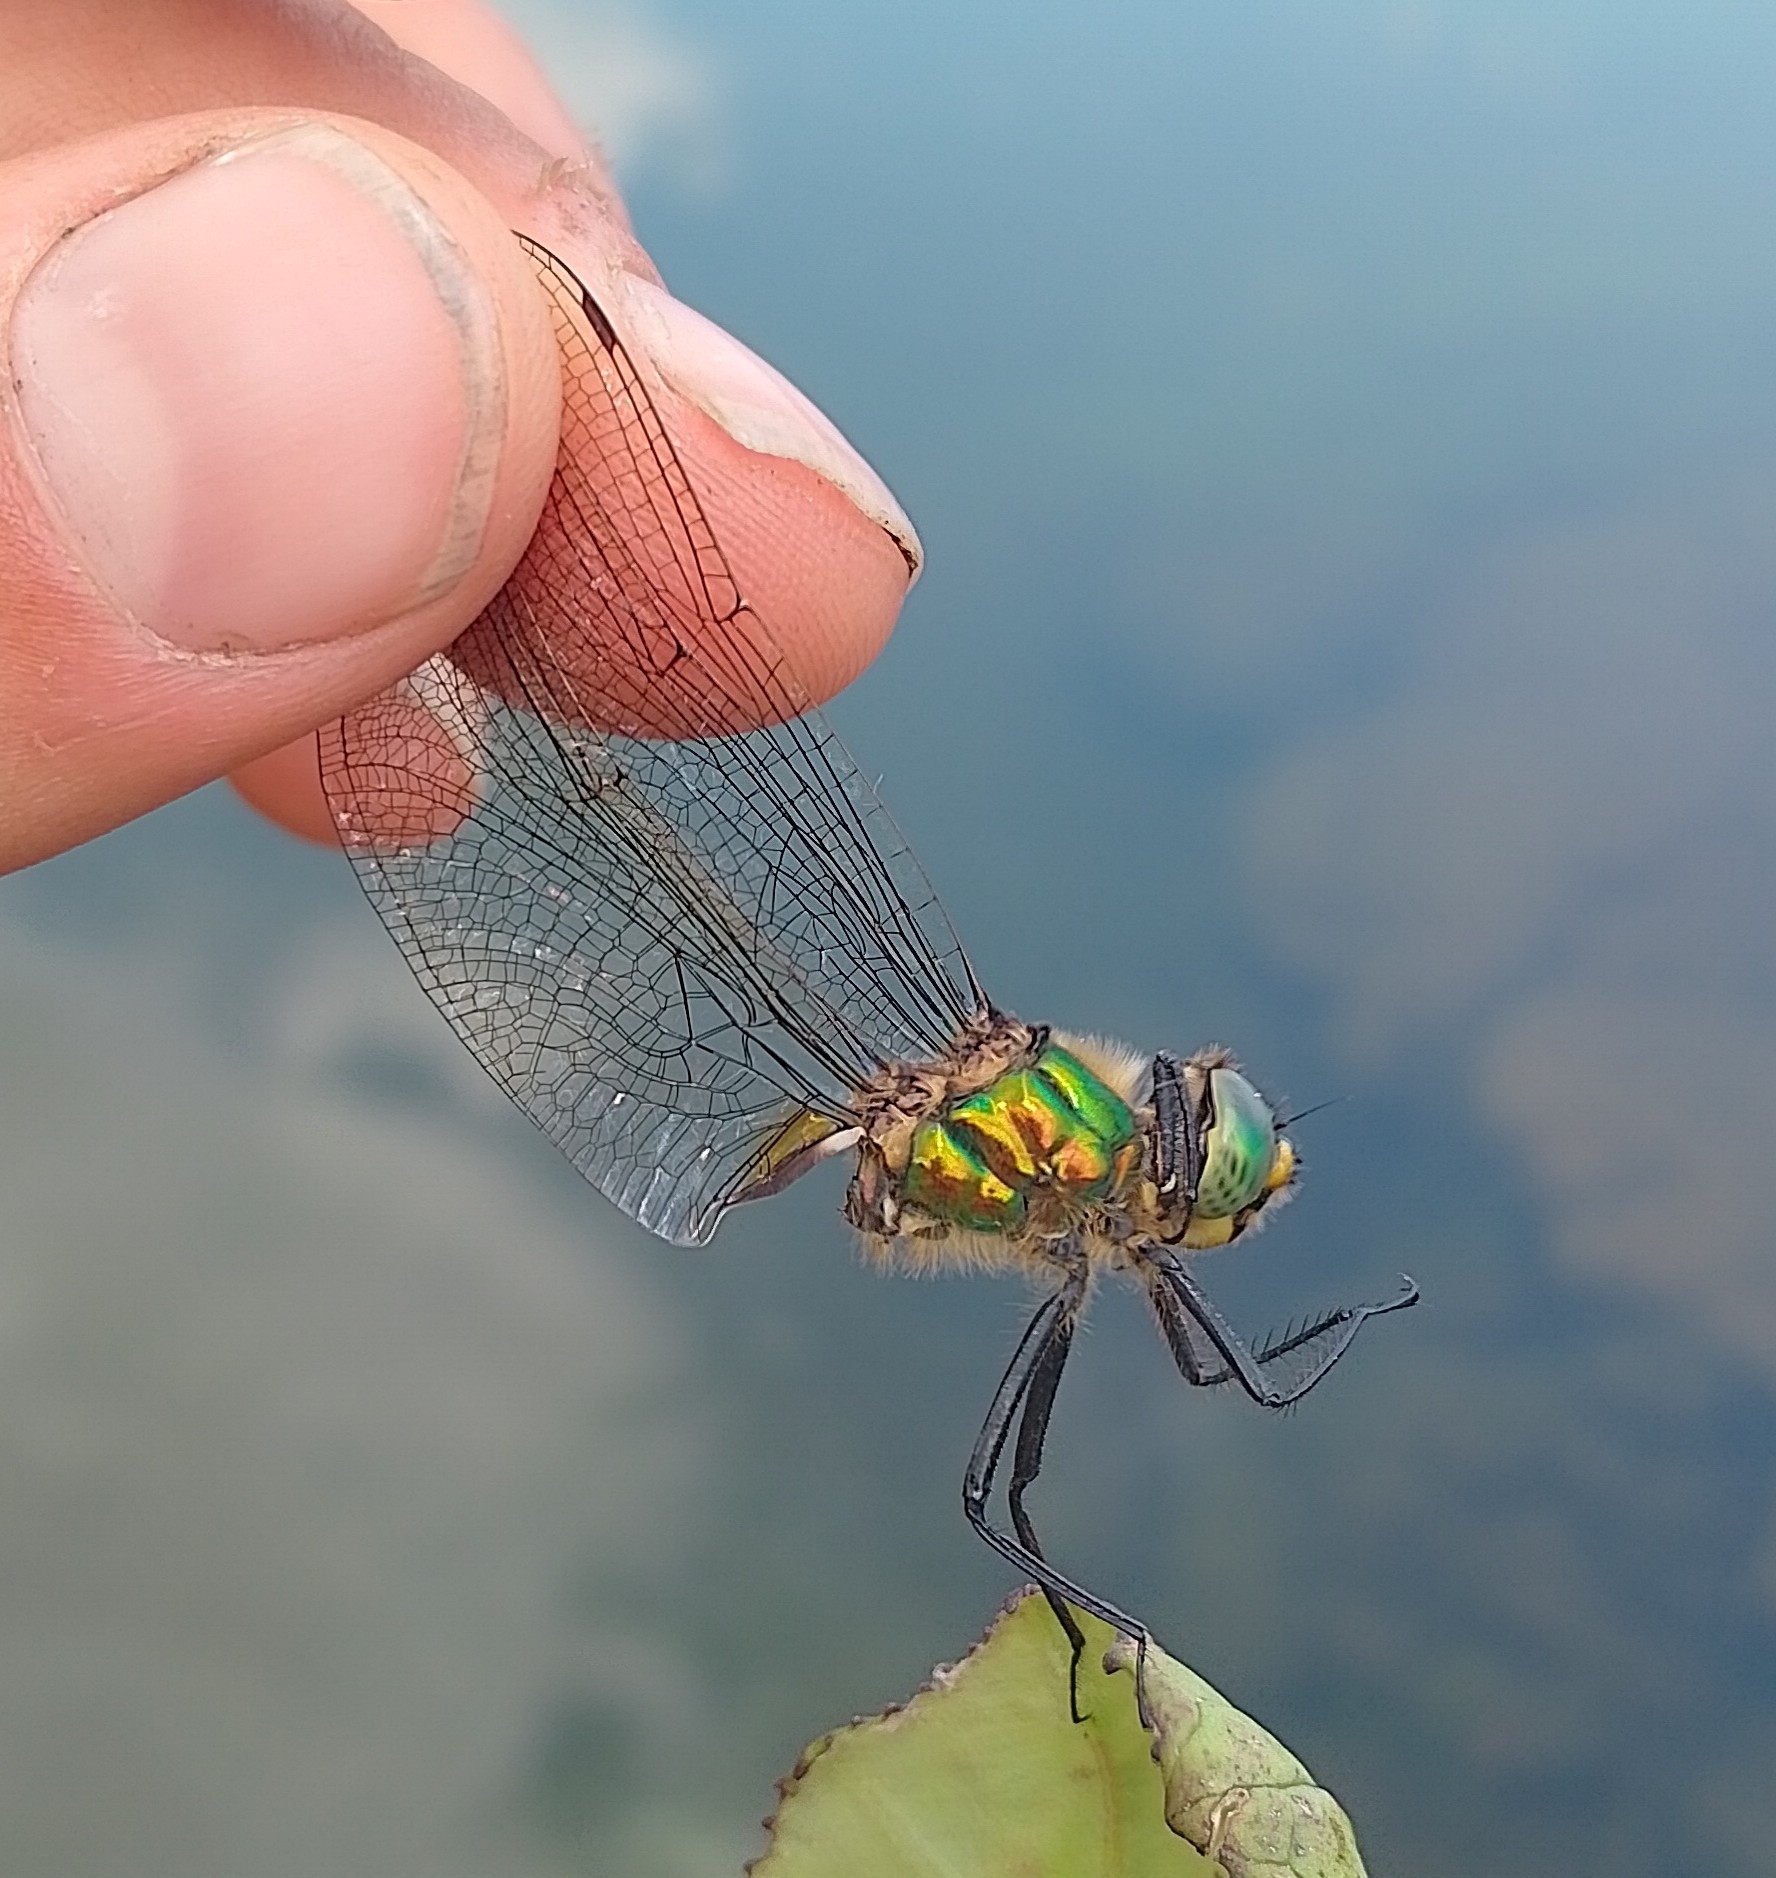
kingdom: Animalia
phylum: Arthropoda
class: Insecta
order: Odonata
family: Corduliidae
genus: Somatochlora
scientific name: Somatochlora metallica
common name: Brilliant emerald
